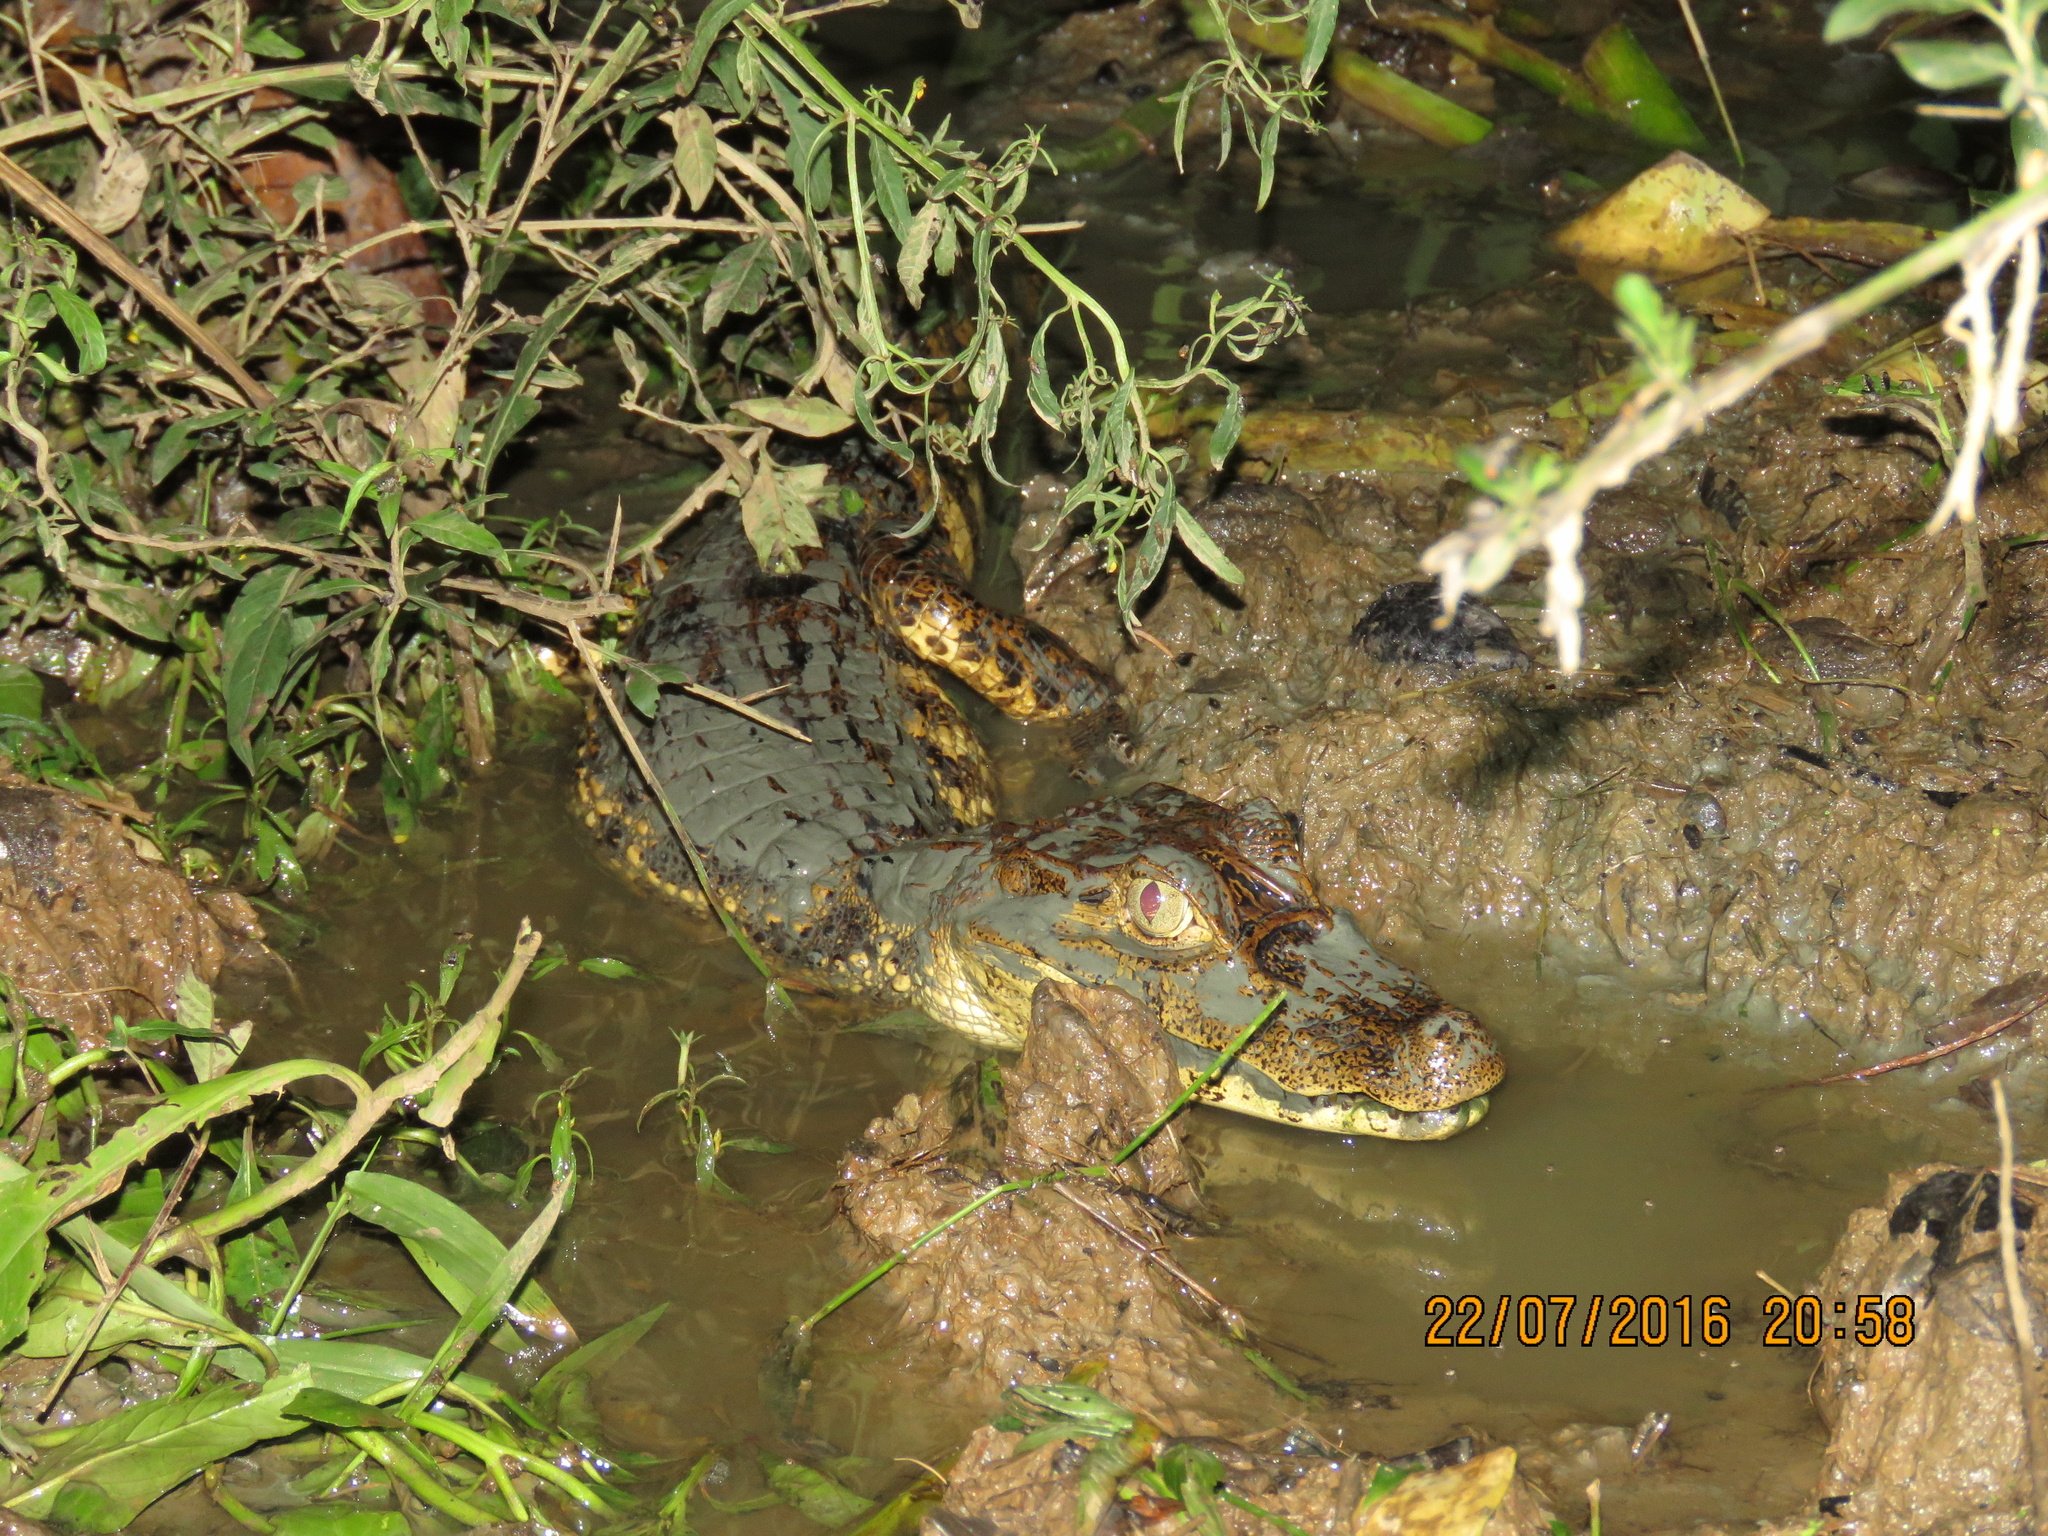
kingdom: Animalia
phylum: Chordata
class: Crocodylia
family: Alligatoridae
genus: Caiman
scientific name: Caiman crocodilus
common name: Common caiman
